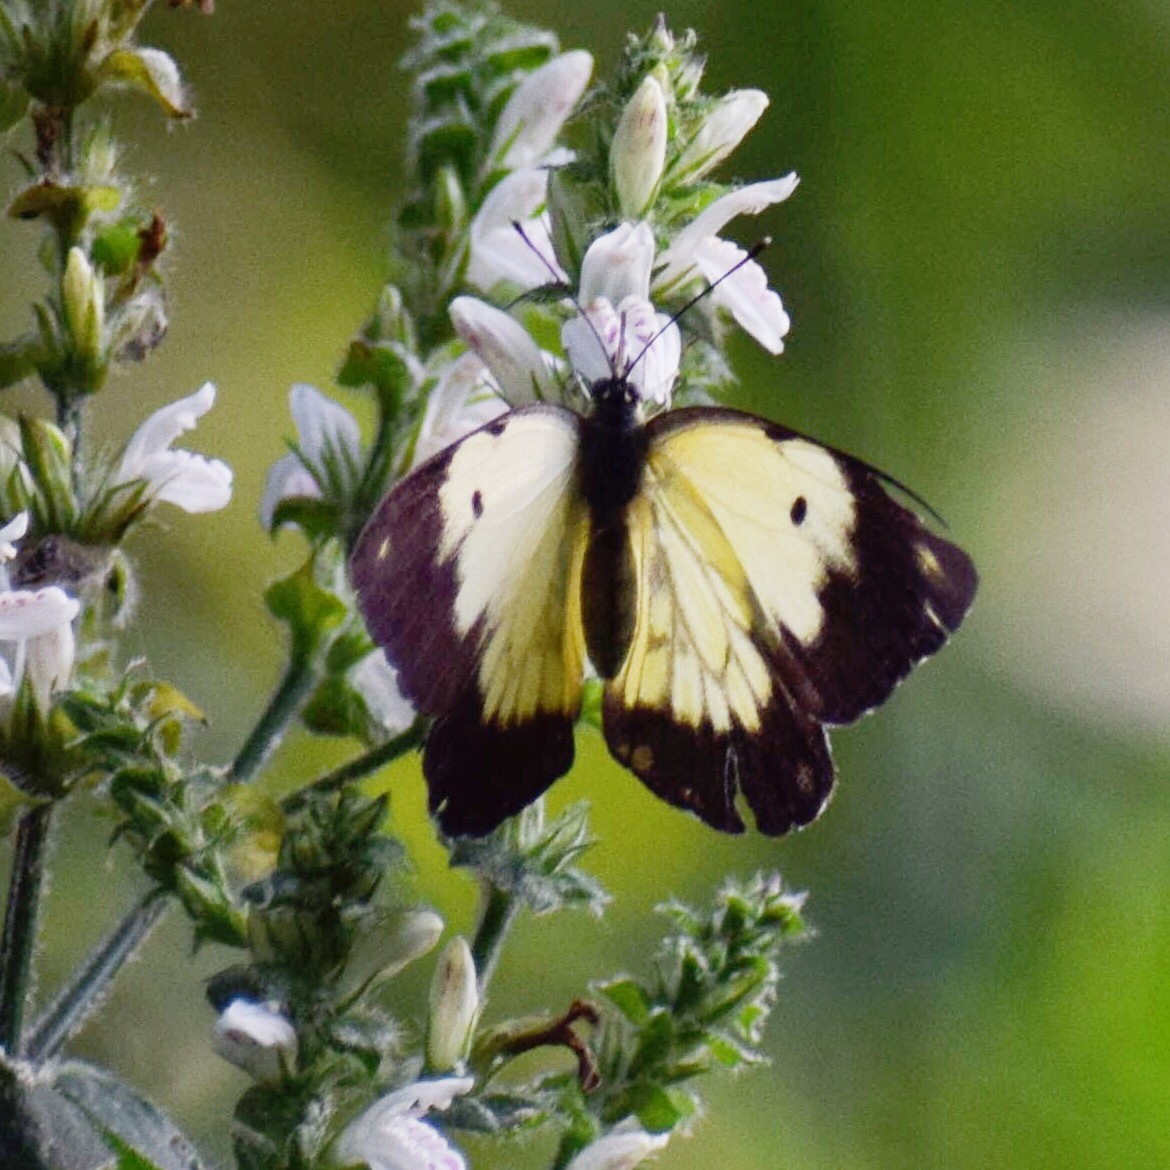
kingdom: Animalia
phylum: Arthropoda
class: Insecta
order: Lepidoptera
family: Pieridae
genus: Belenois
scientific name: Belenois creona
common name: African caper white
